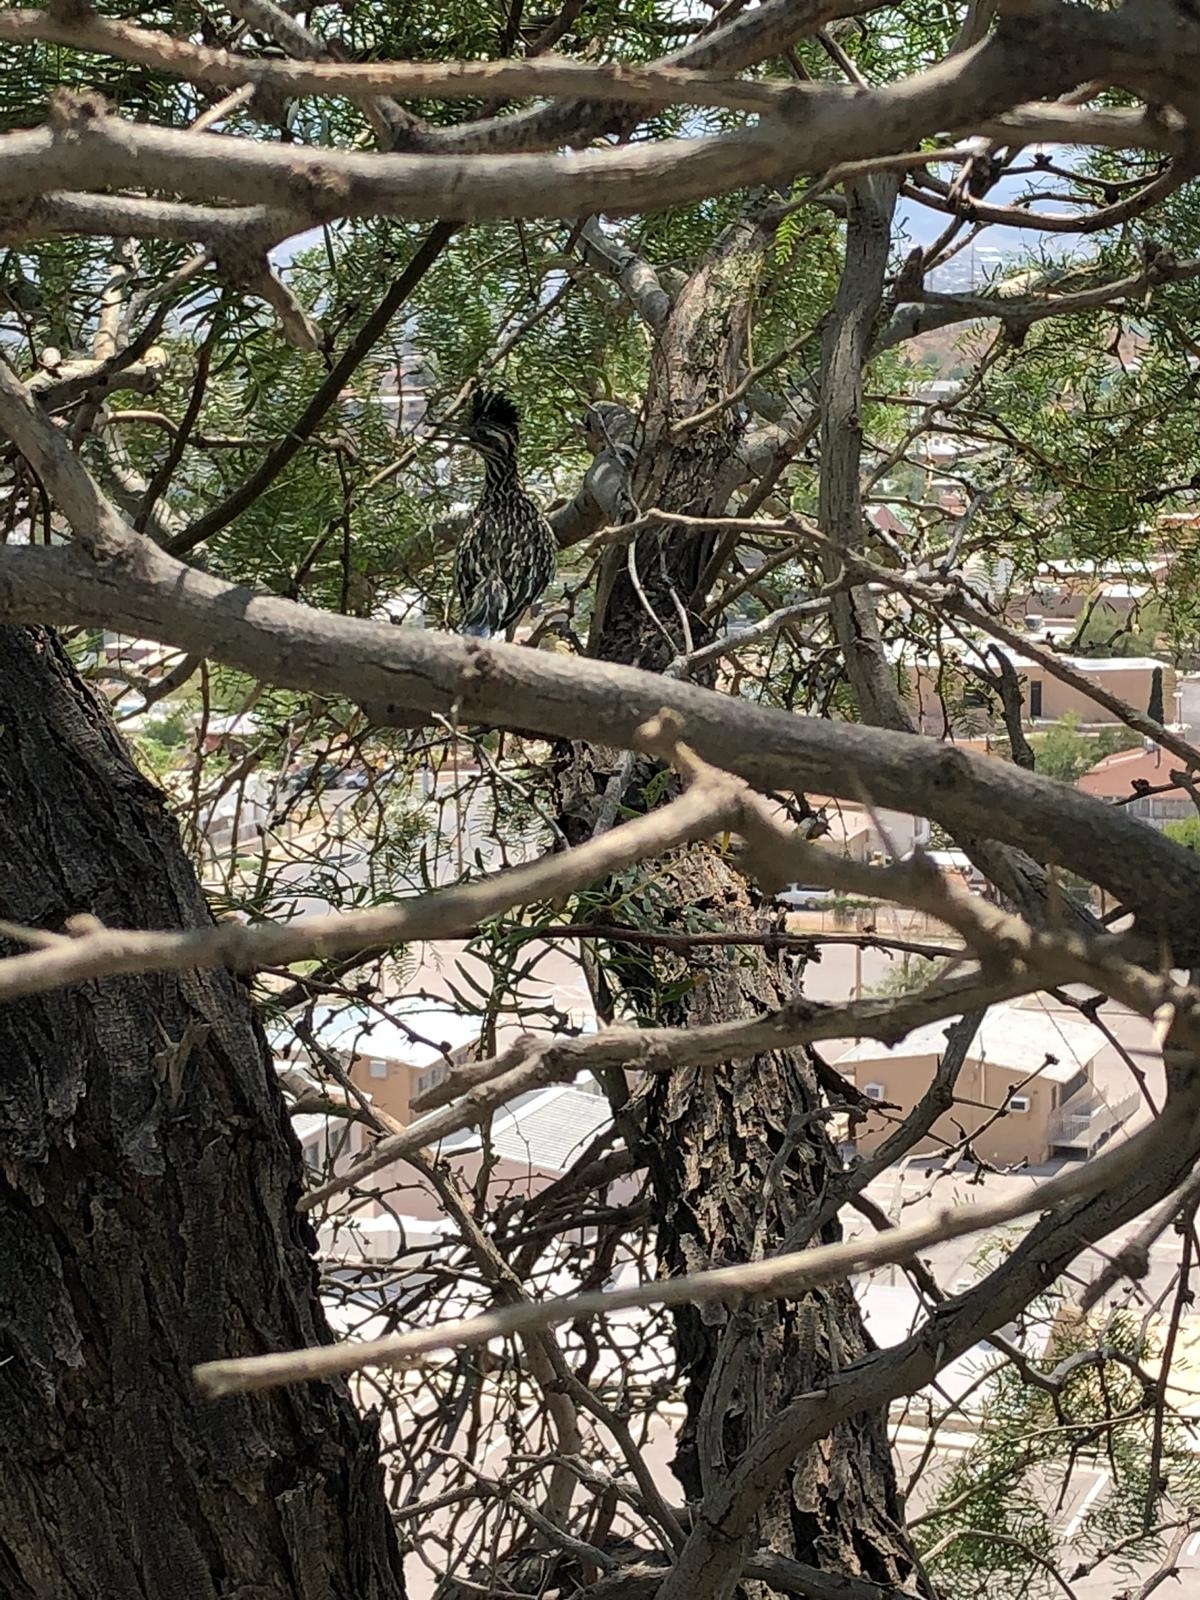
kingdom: Animalia
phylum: Chordata
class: Aves
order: Cuculiformes
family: Cuculidae
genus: Geococcyx
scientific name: Geococcyx californianus
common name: Greater roadrunner
